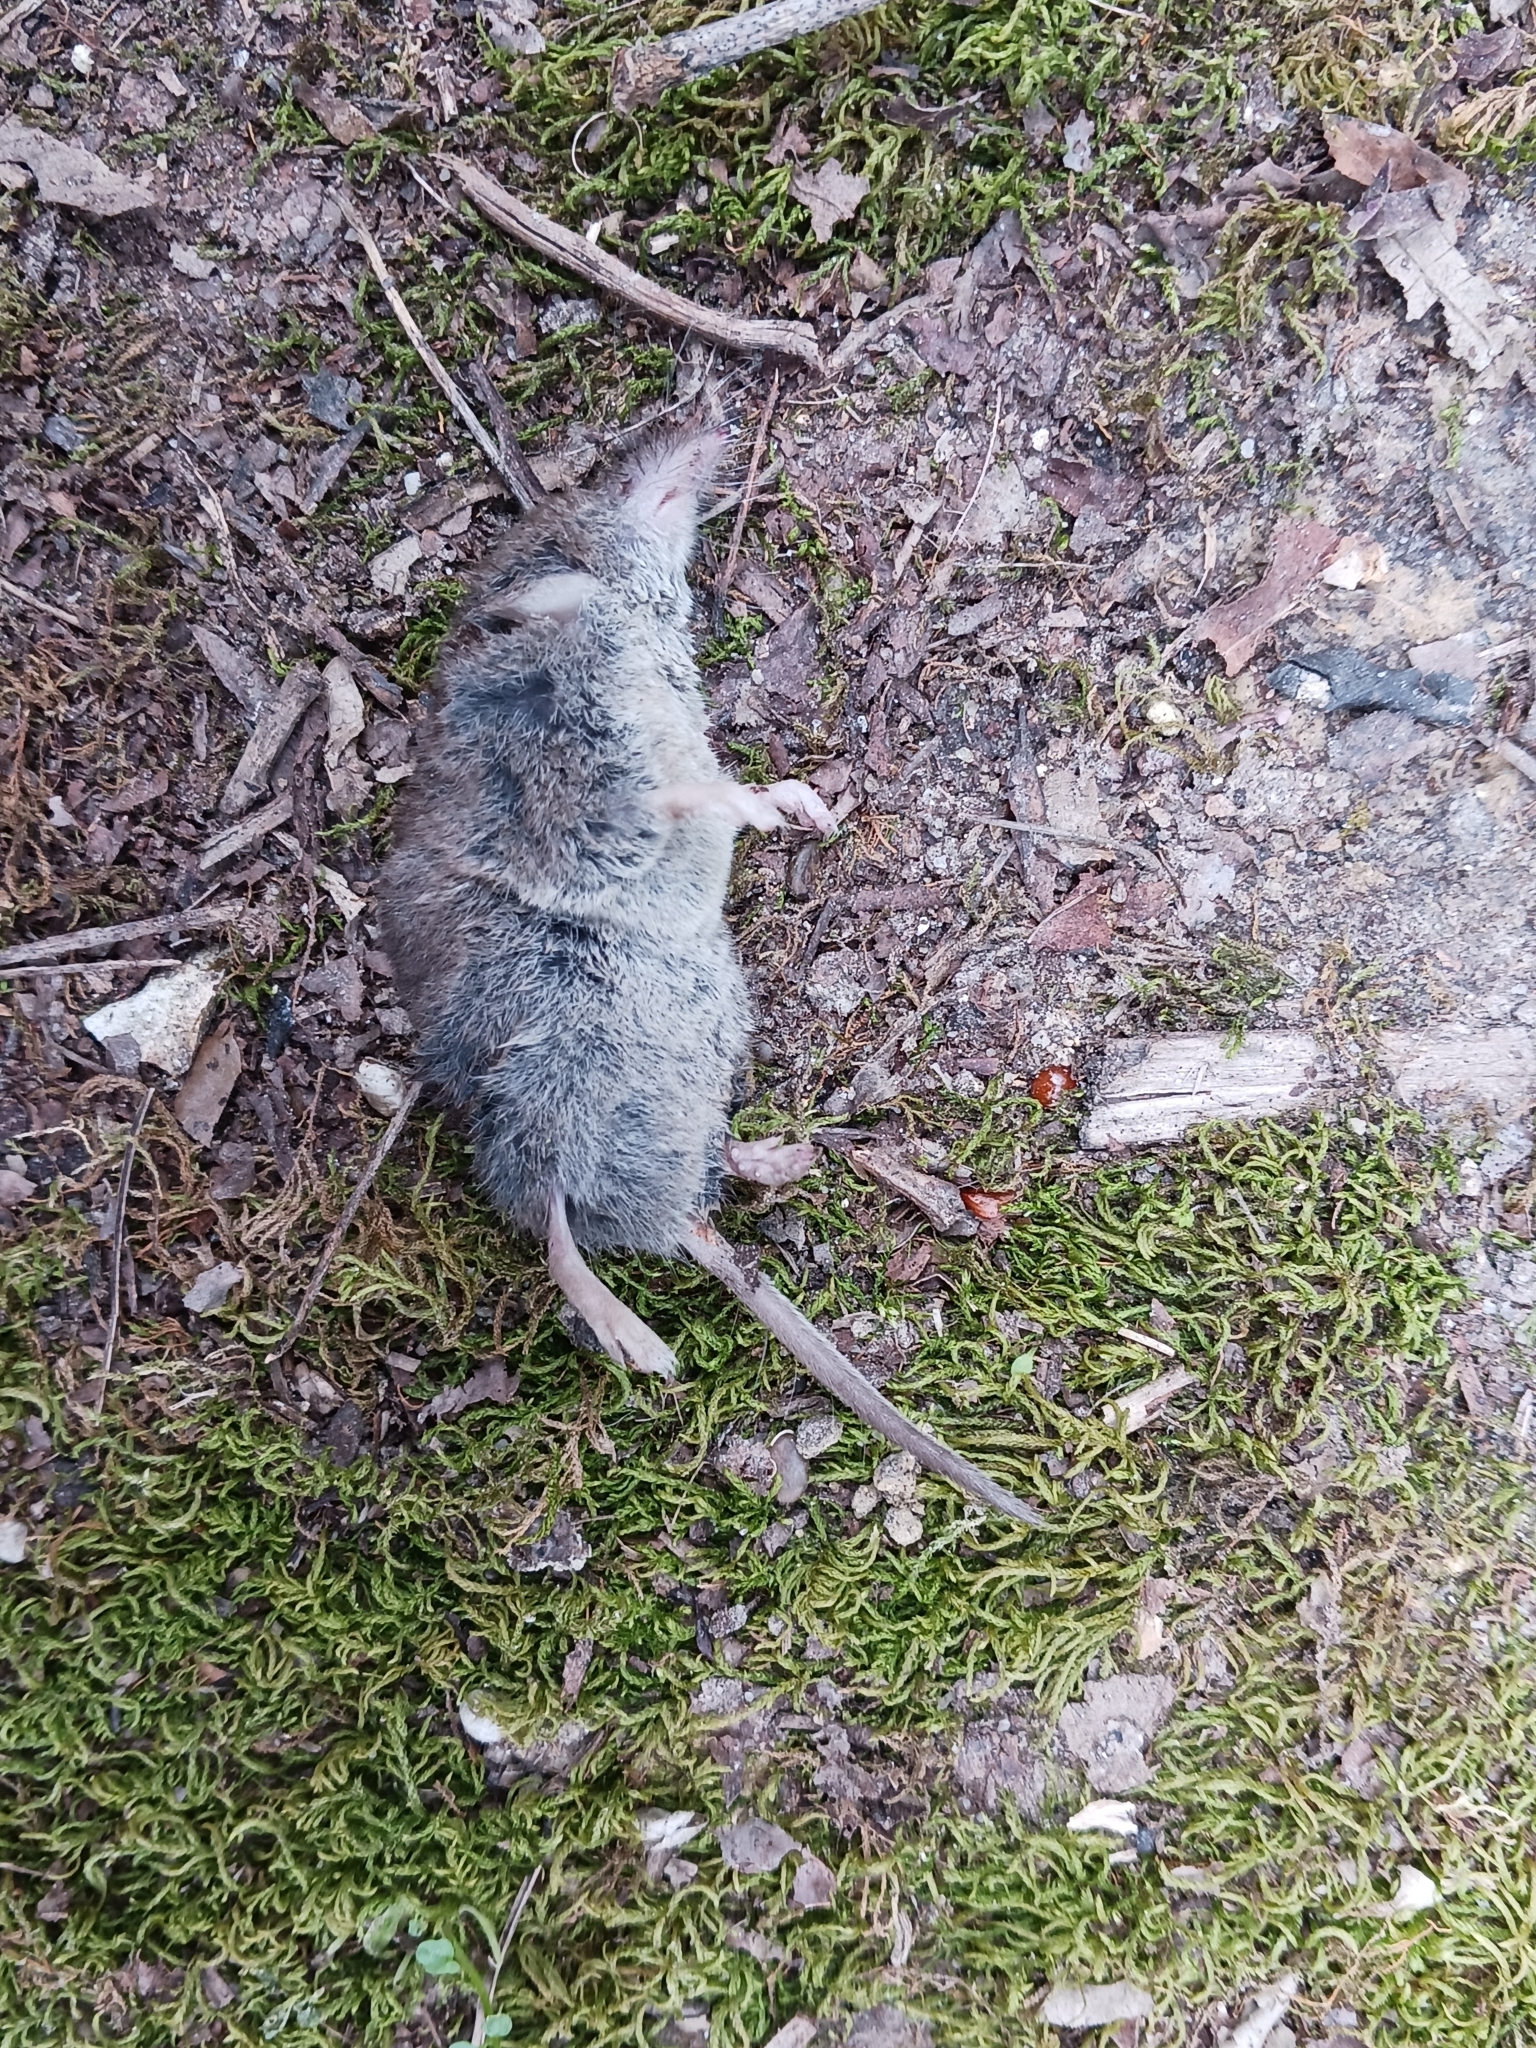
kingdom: Animalia
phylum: Chordata
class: Mammalia
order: Soricomorpha
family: Soricidae
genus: Crocidura
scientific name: Crocidura russula
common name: Greater white-toothed shrew
